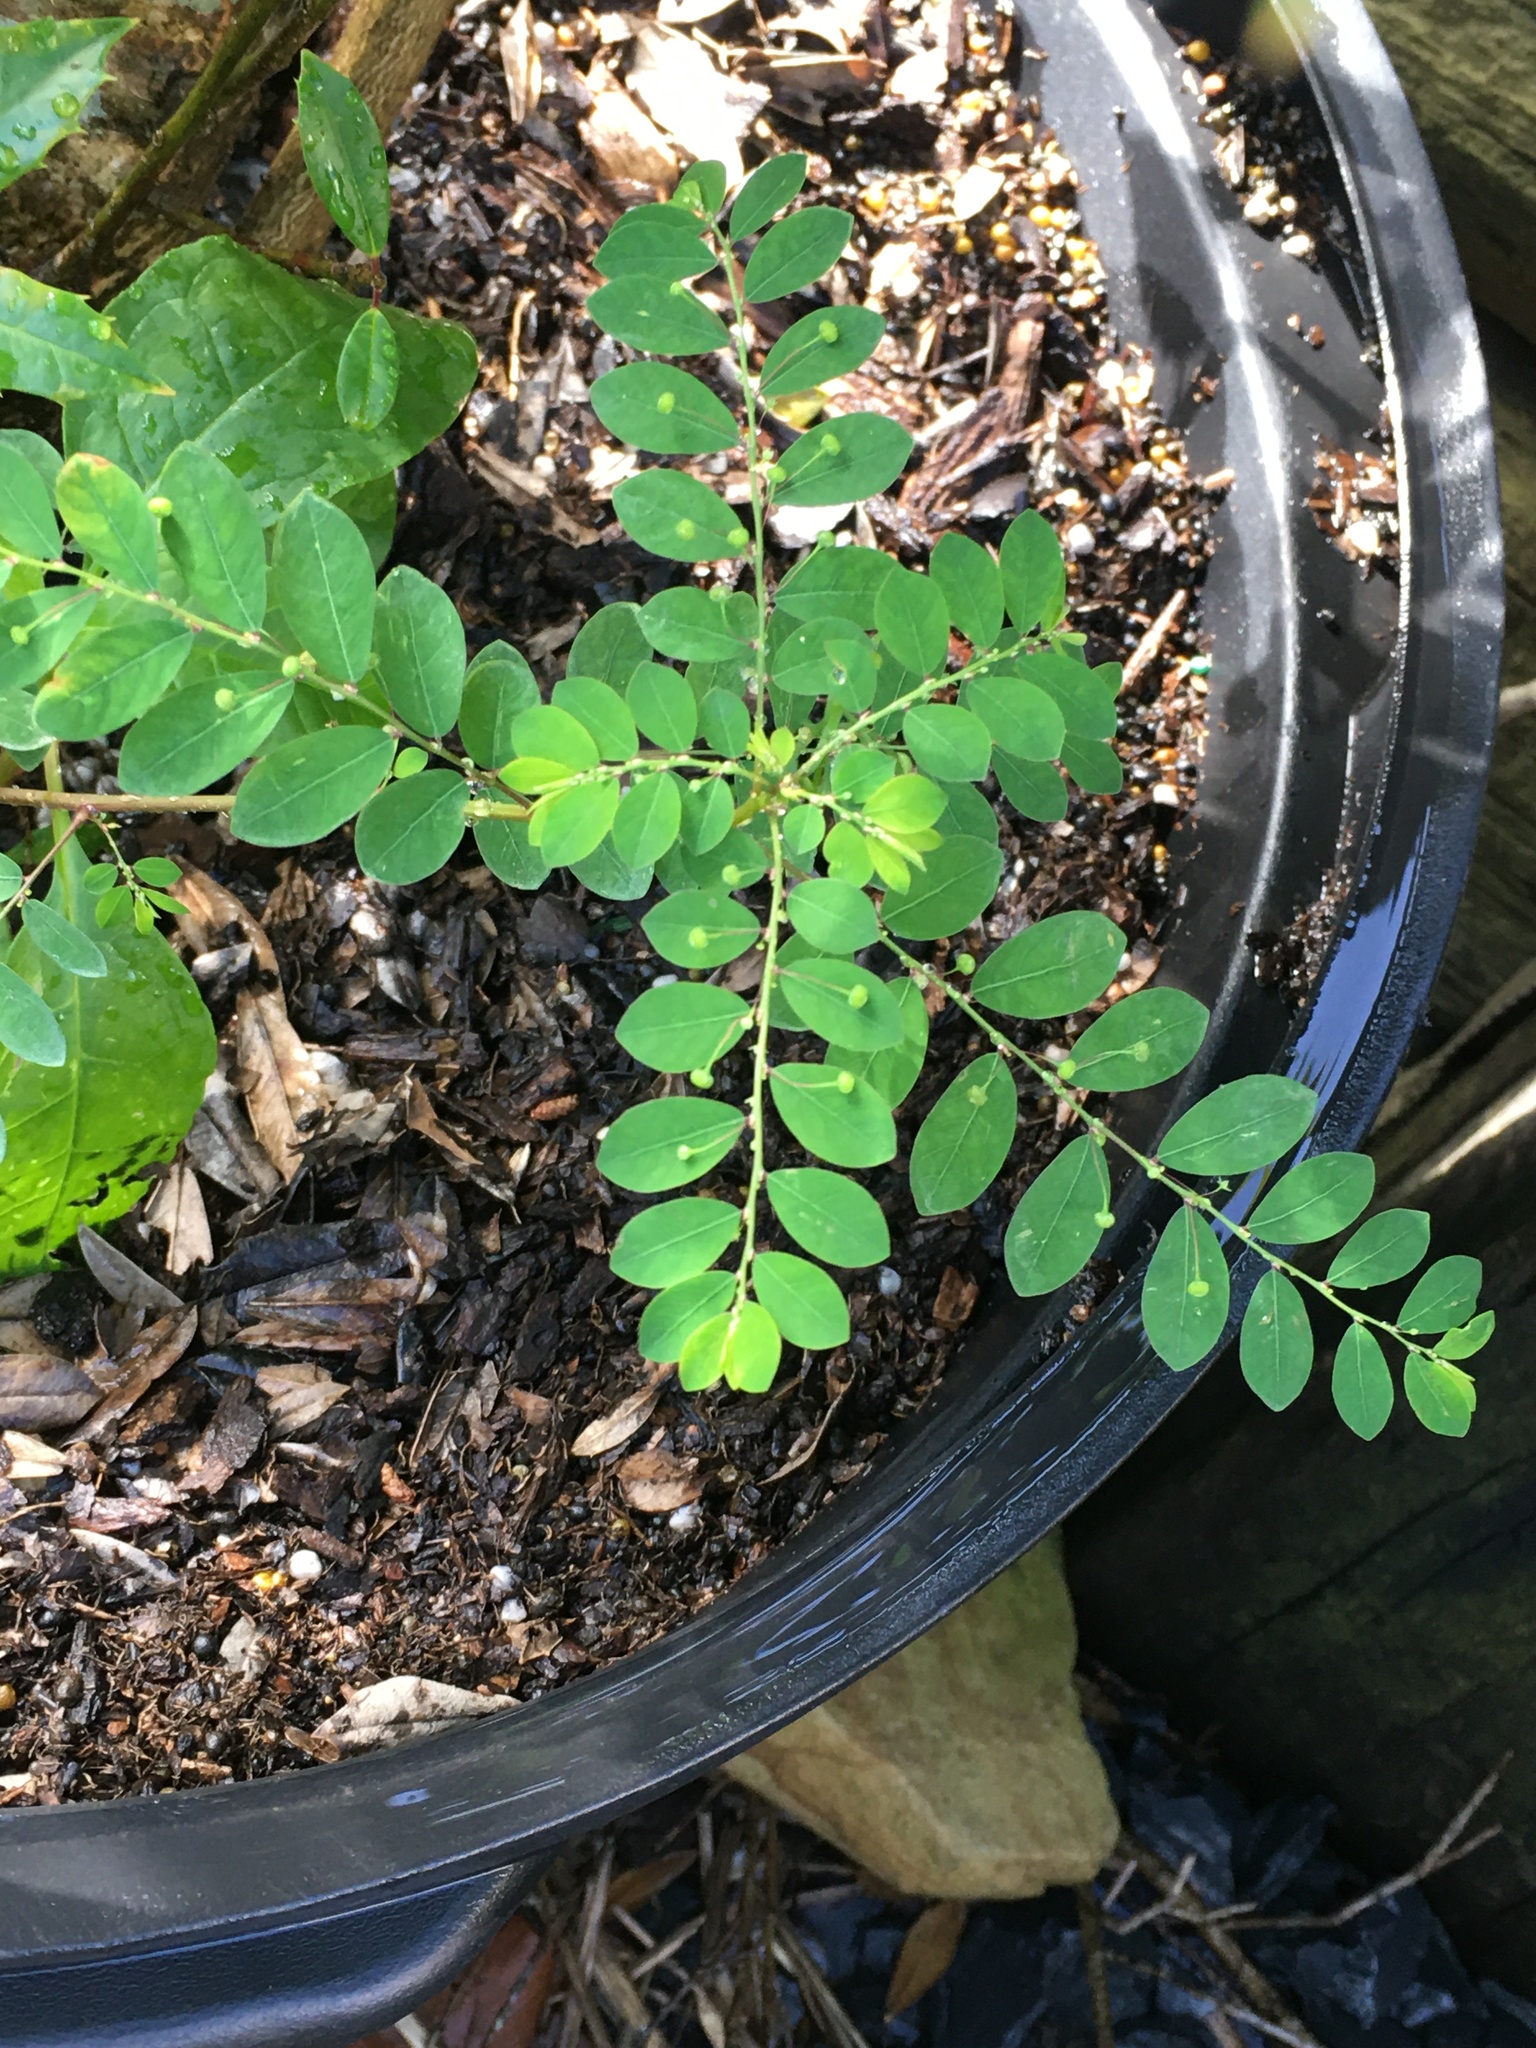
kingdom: Plantae
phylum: Tracheophyta
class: Magnoliopsida
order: Malpighiales
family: Phyllanthaceae
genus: Phyllanthus
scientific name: Phyllanthus tenellus
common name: Mascarene island leaf-flower
